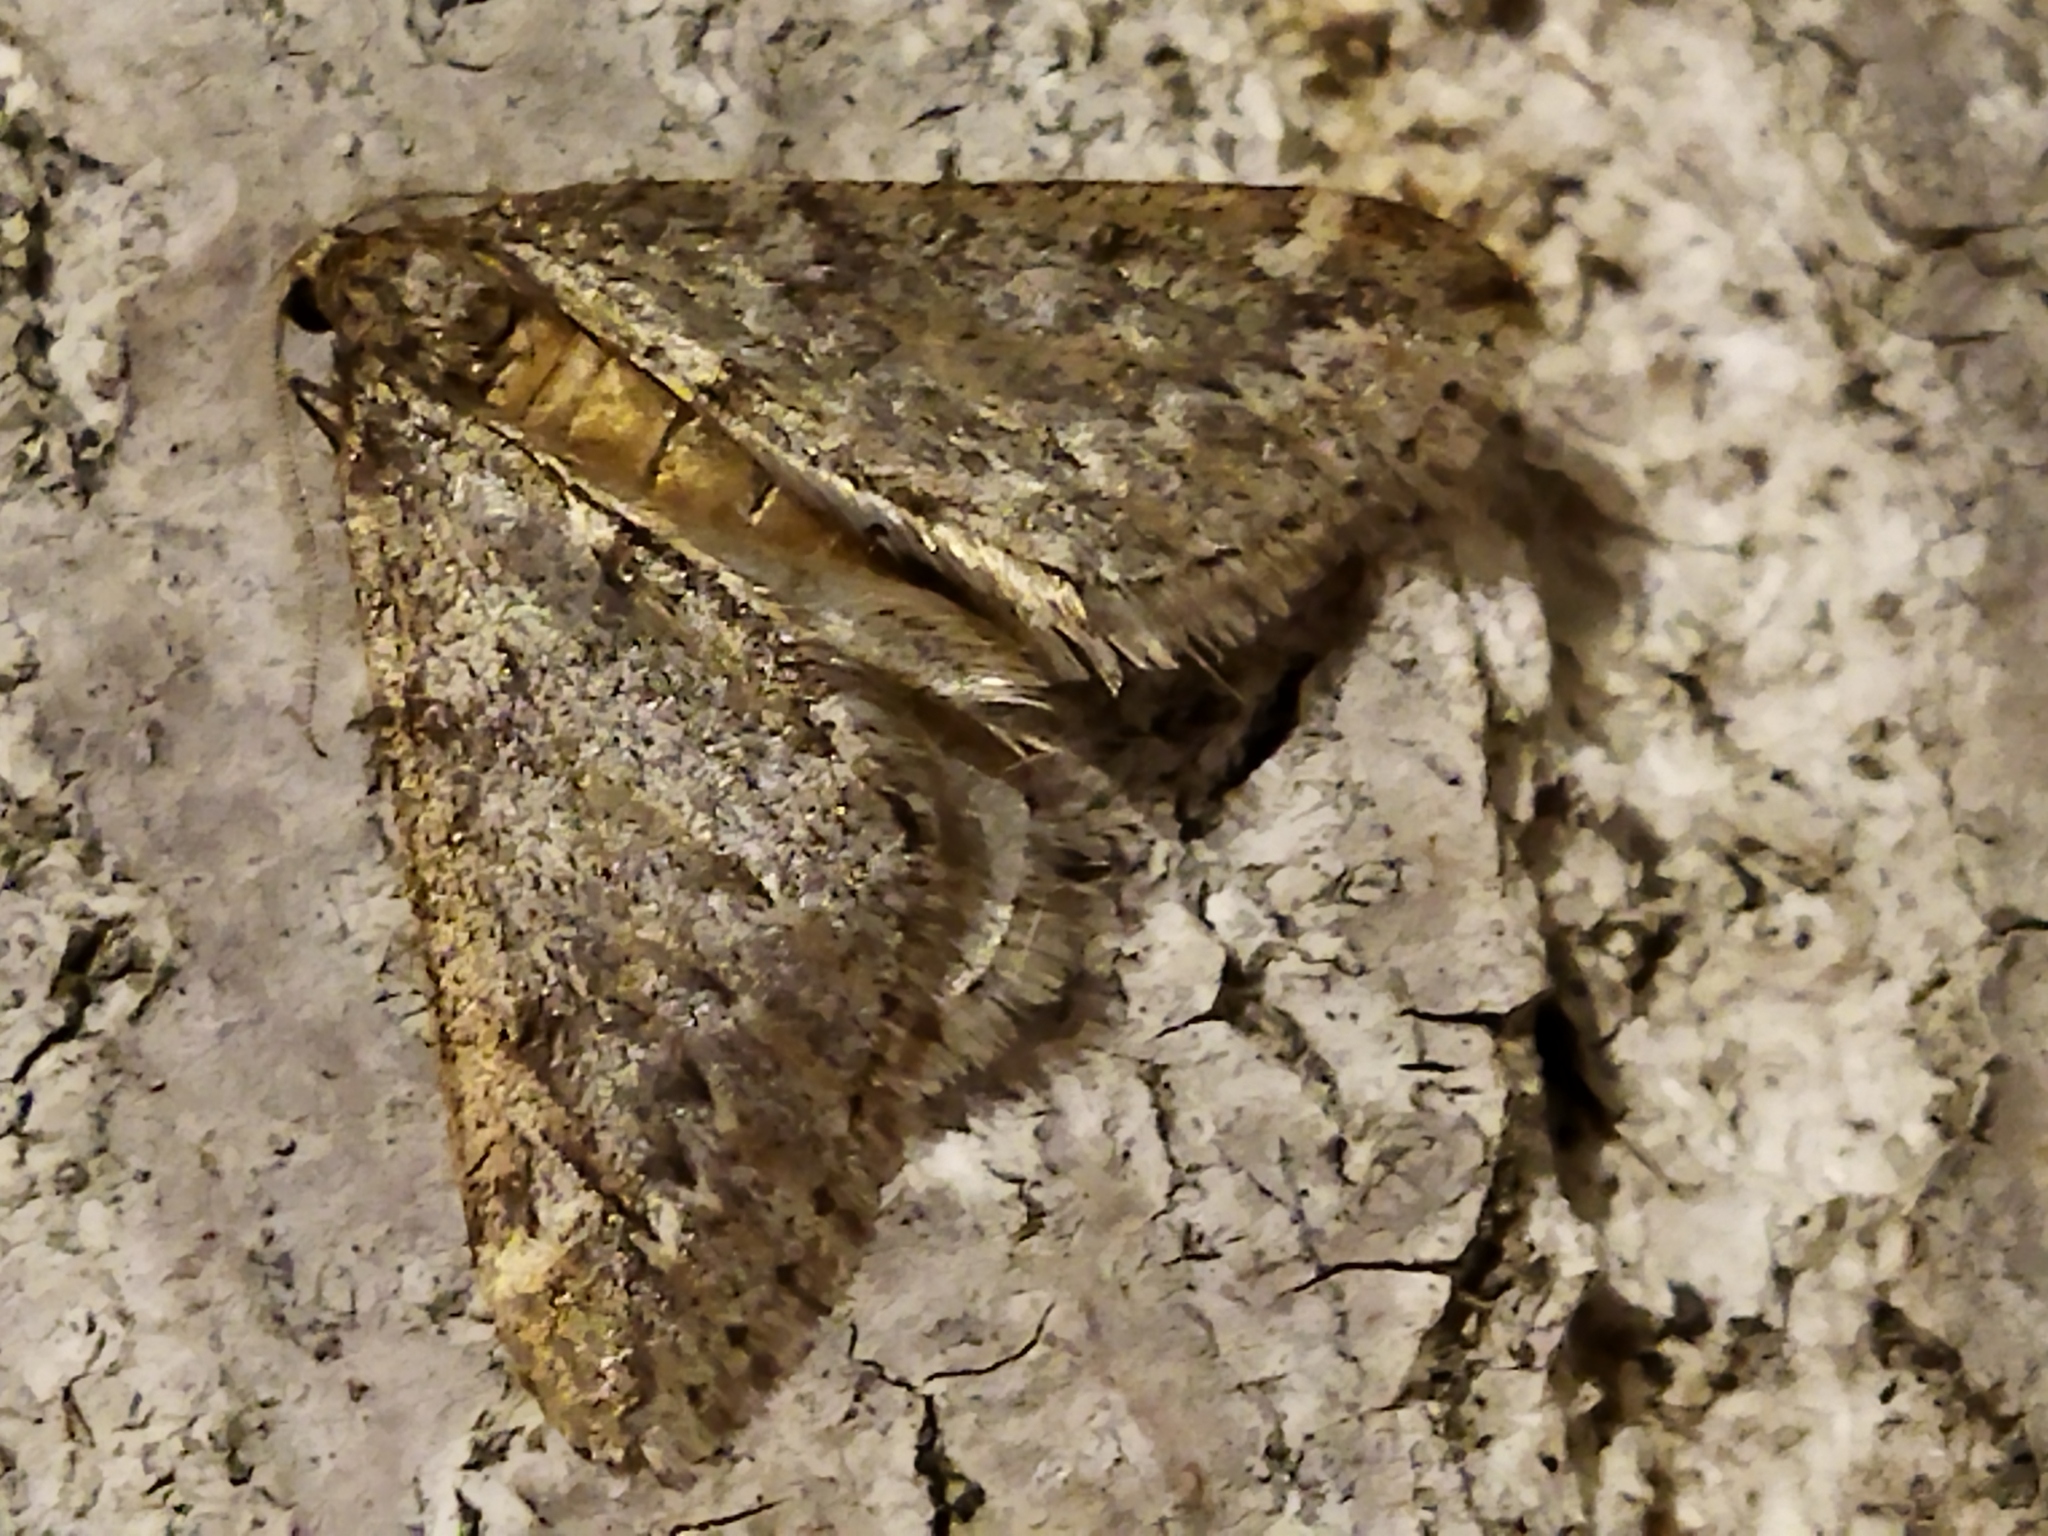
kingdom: Animalia
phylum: Arthropoda
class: Insecta
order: Lepidoptera
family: Geometridae
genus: Alsophila
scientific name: Alsophila aescularia
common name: March moth
